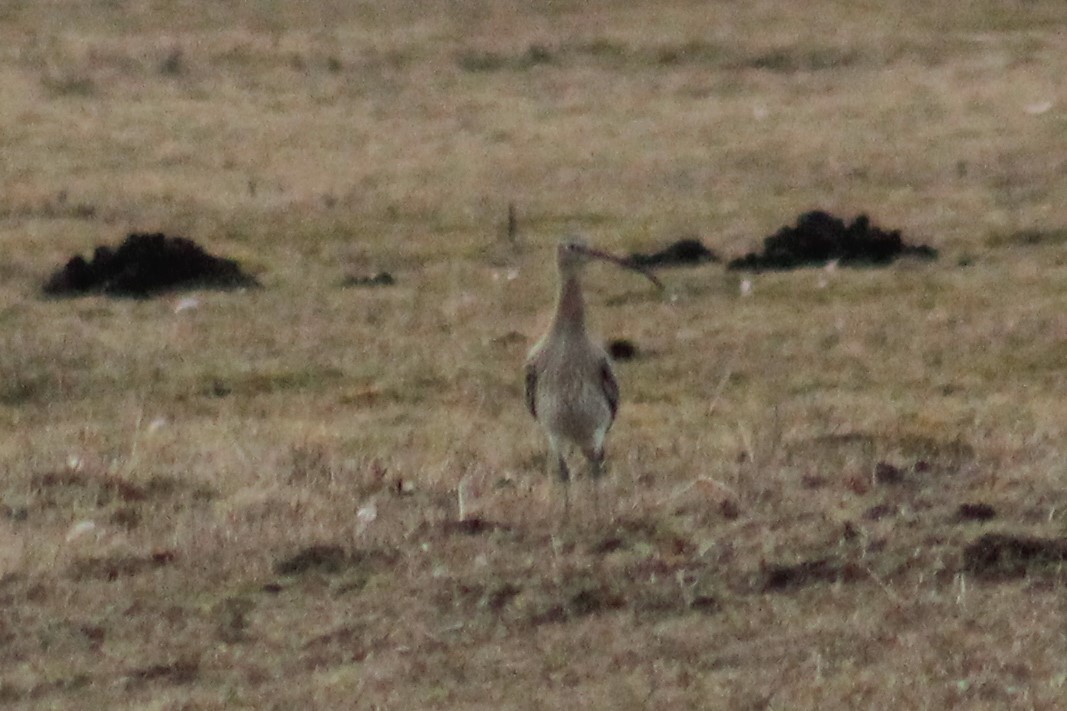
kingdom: Animalia
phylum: Chordata
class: Aves
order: Charadriiformes
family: Scolopacidae
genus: Numenius
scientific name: Numenius arquata
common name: Eurasian curlew
